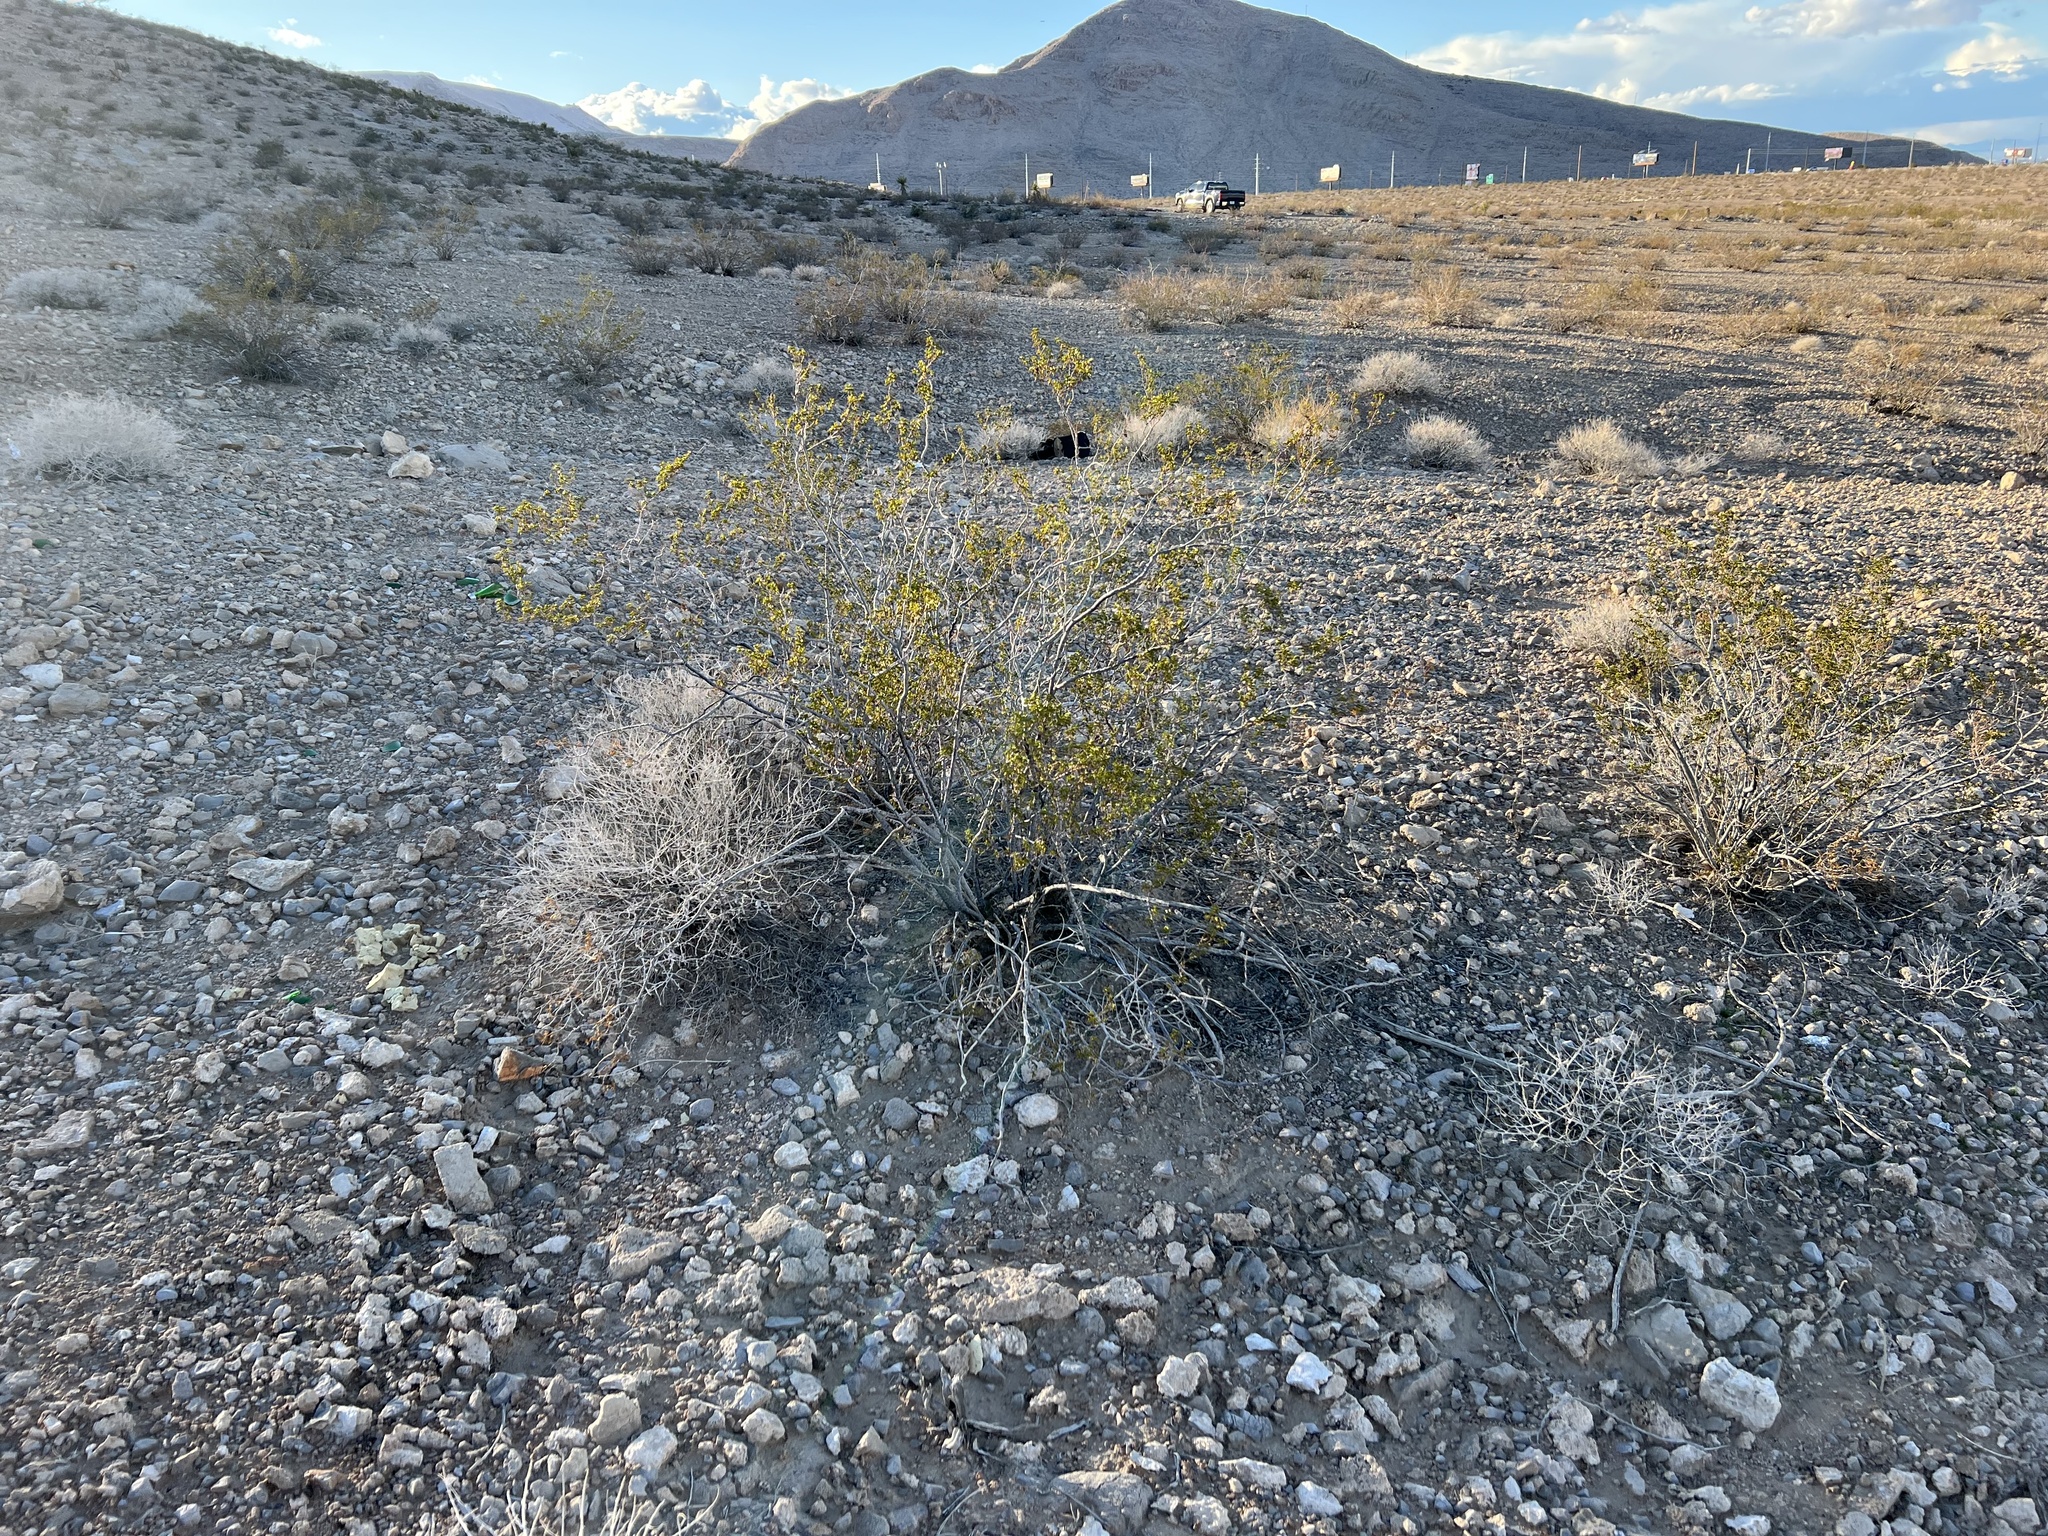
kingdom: Plantae
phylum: Tracheophyta
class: Magnoliopsida
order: Zygophyllales
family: Zygophyllaceae
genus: Larrea
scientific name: Larrea tridentata
